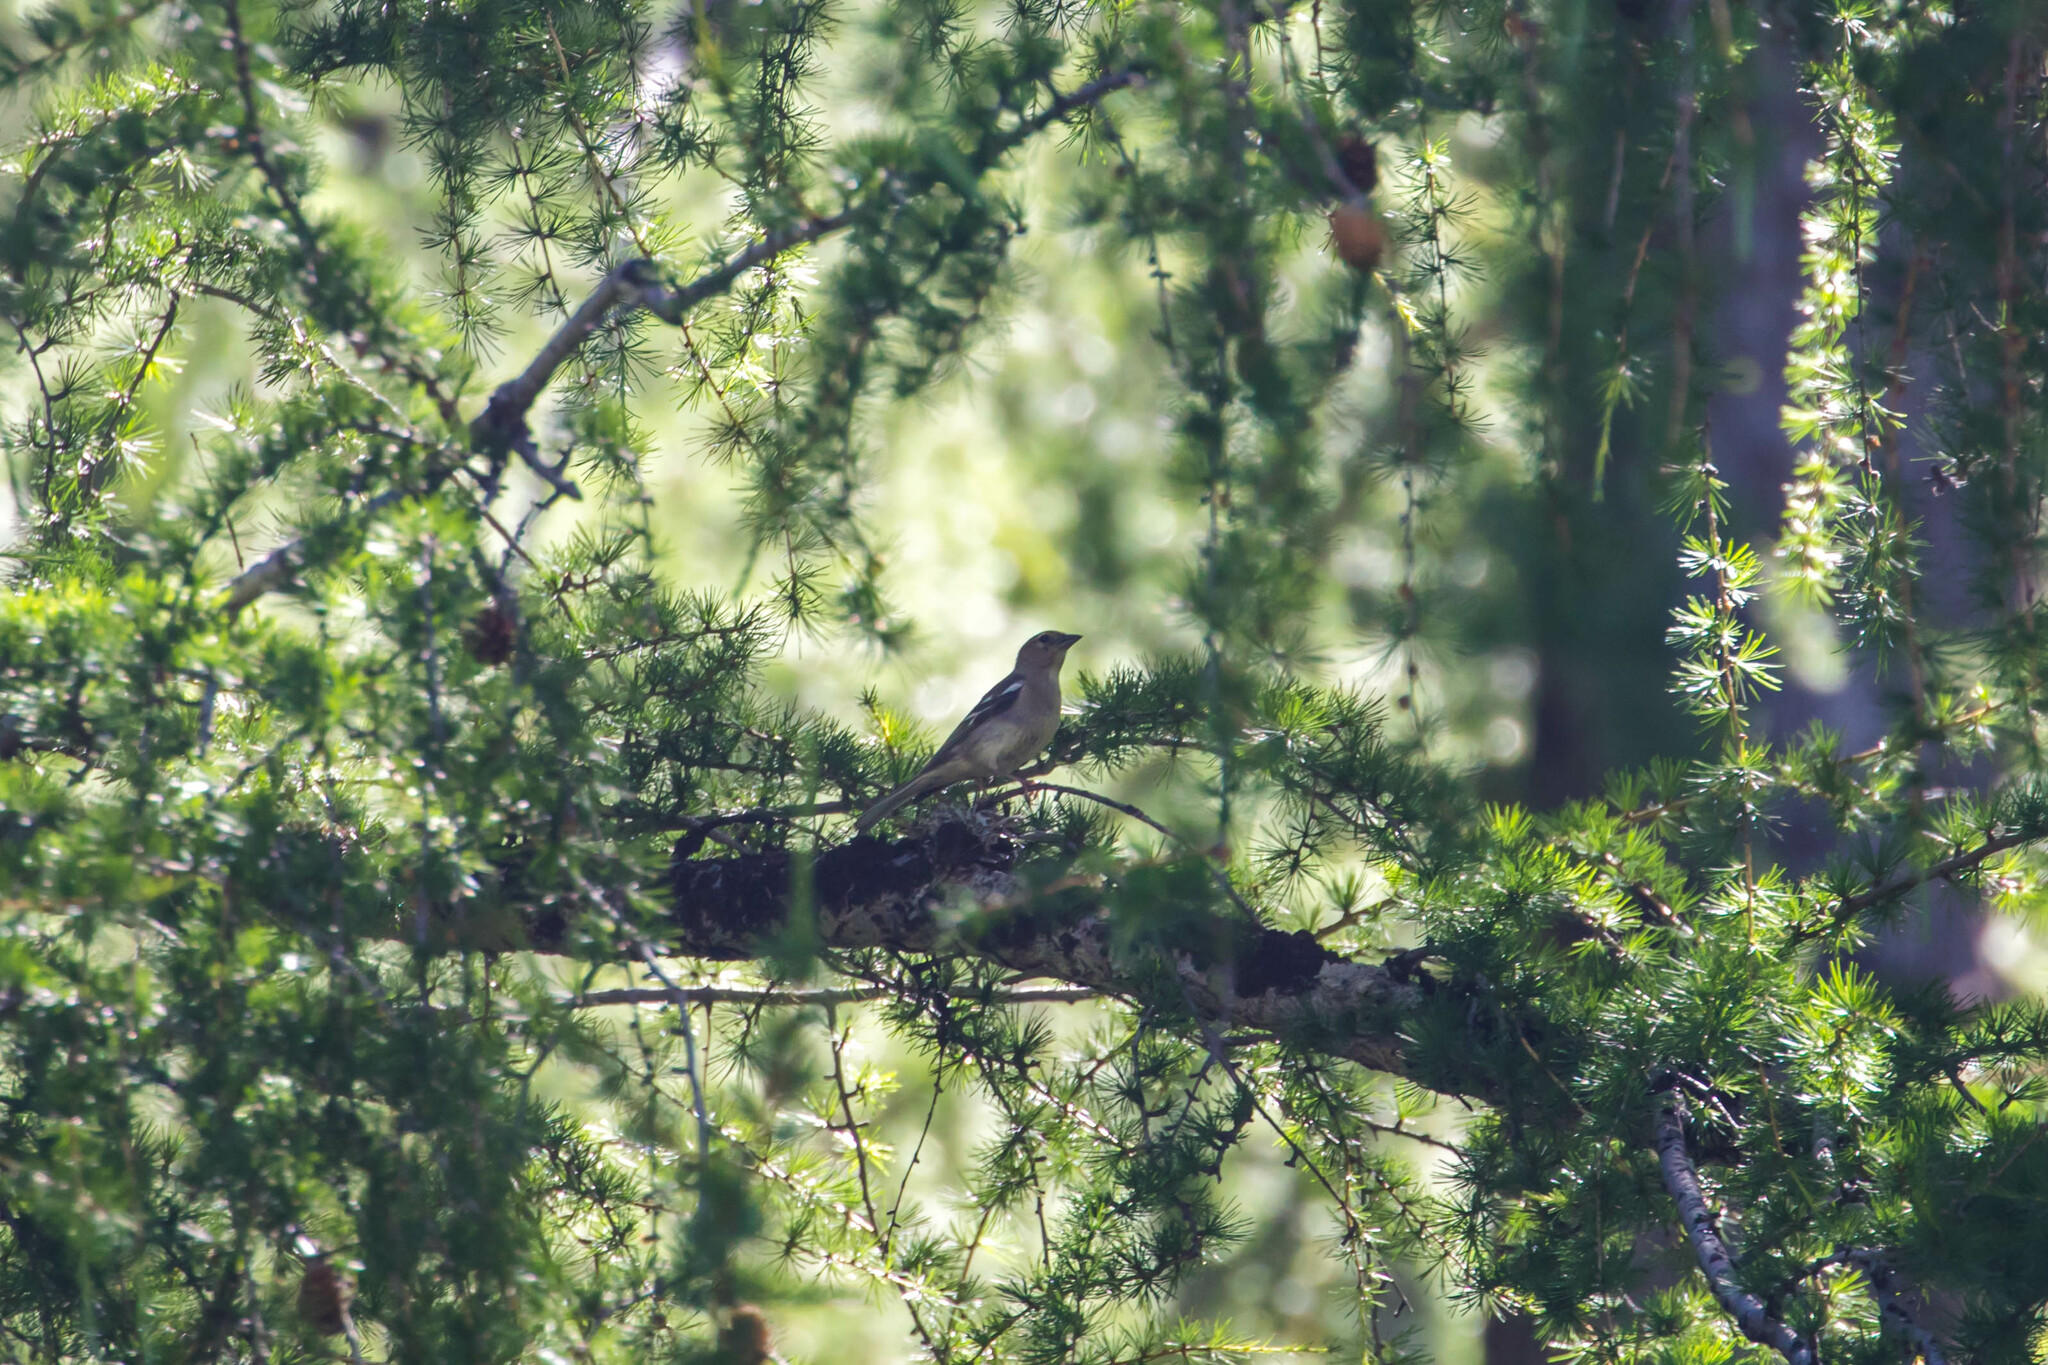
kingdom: Animalia
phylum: Chordata
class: Aves
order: Passeriformes
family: Fringillidae
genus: Fringilla
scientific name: Fringilla coelebs
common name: Common chaffinch
